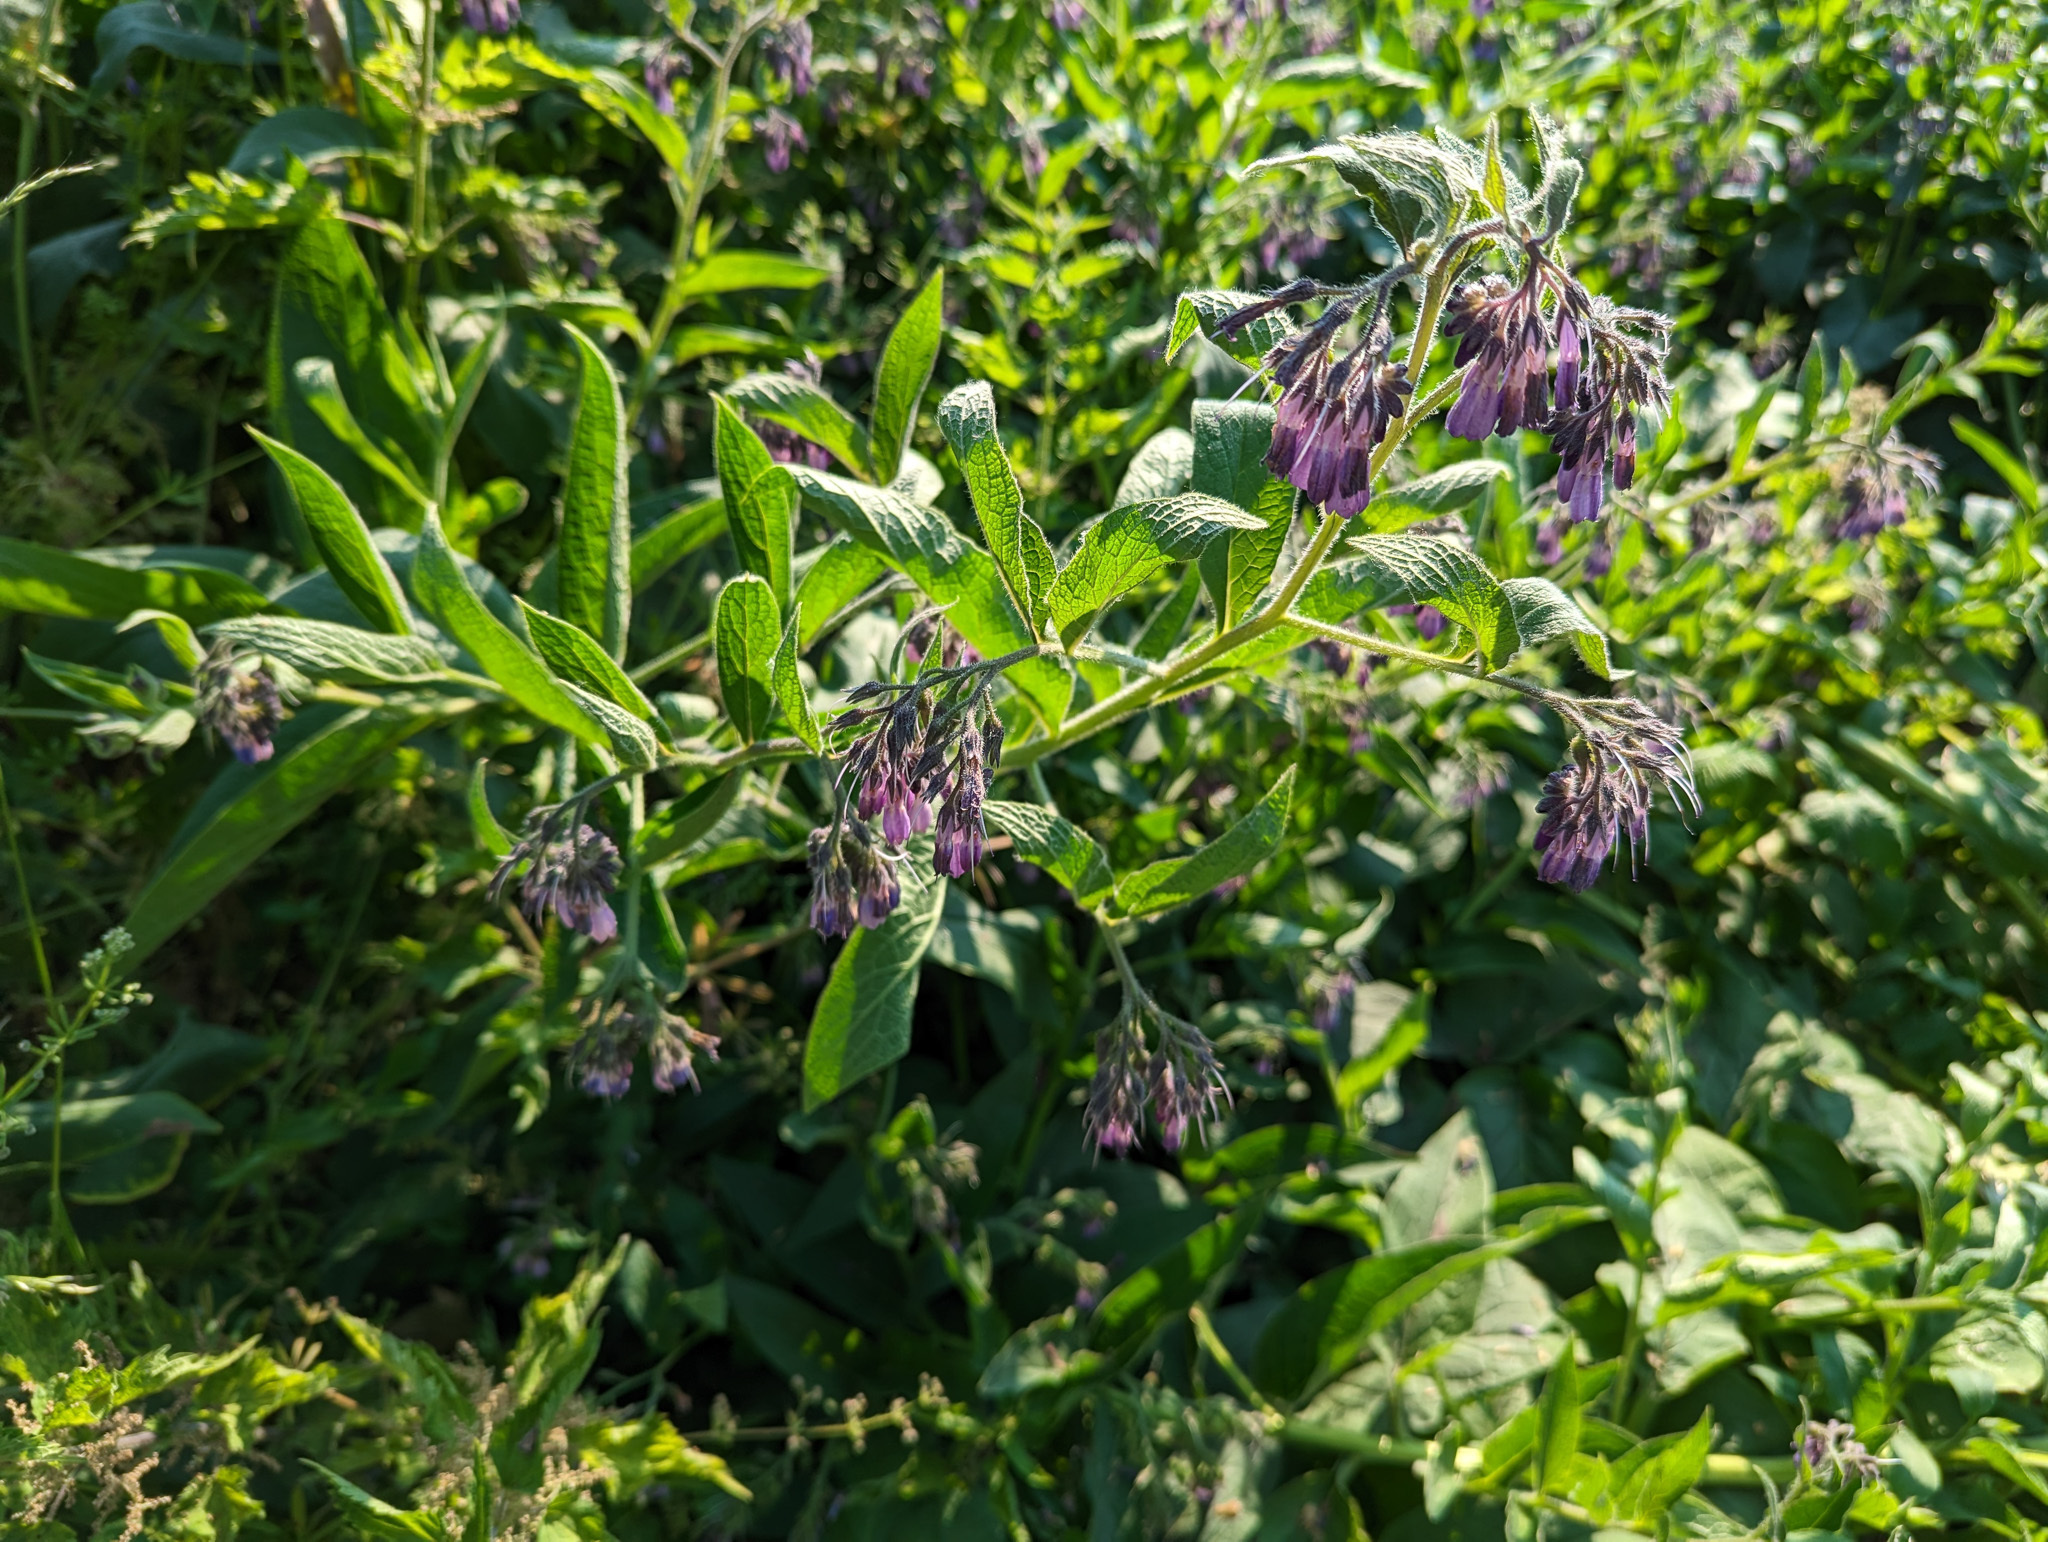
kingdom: Plantae
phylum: Tracheophyta
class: Magnoliopsida
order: Boraginales
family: Boraginaceae
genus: Symphytum
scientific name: Symphytum uplandicum
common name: Russian comfrey
